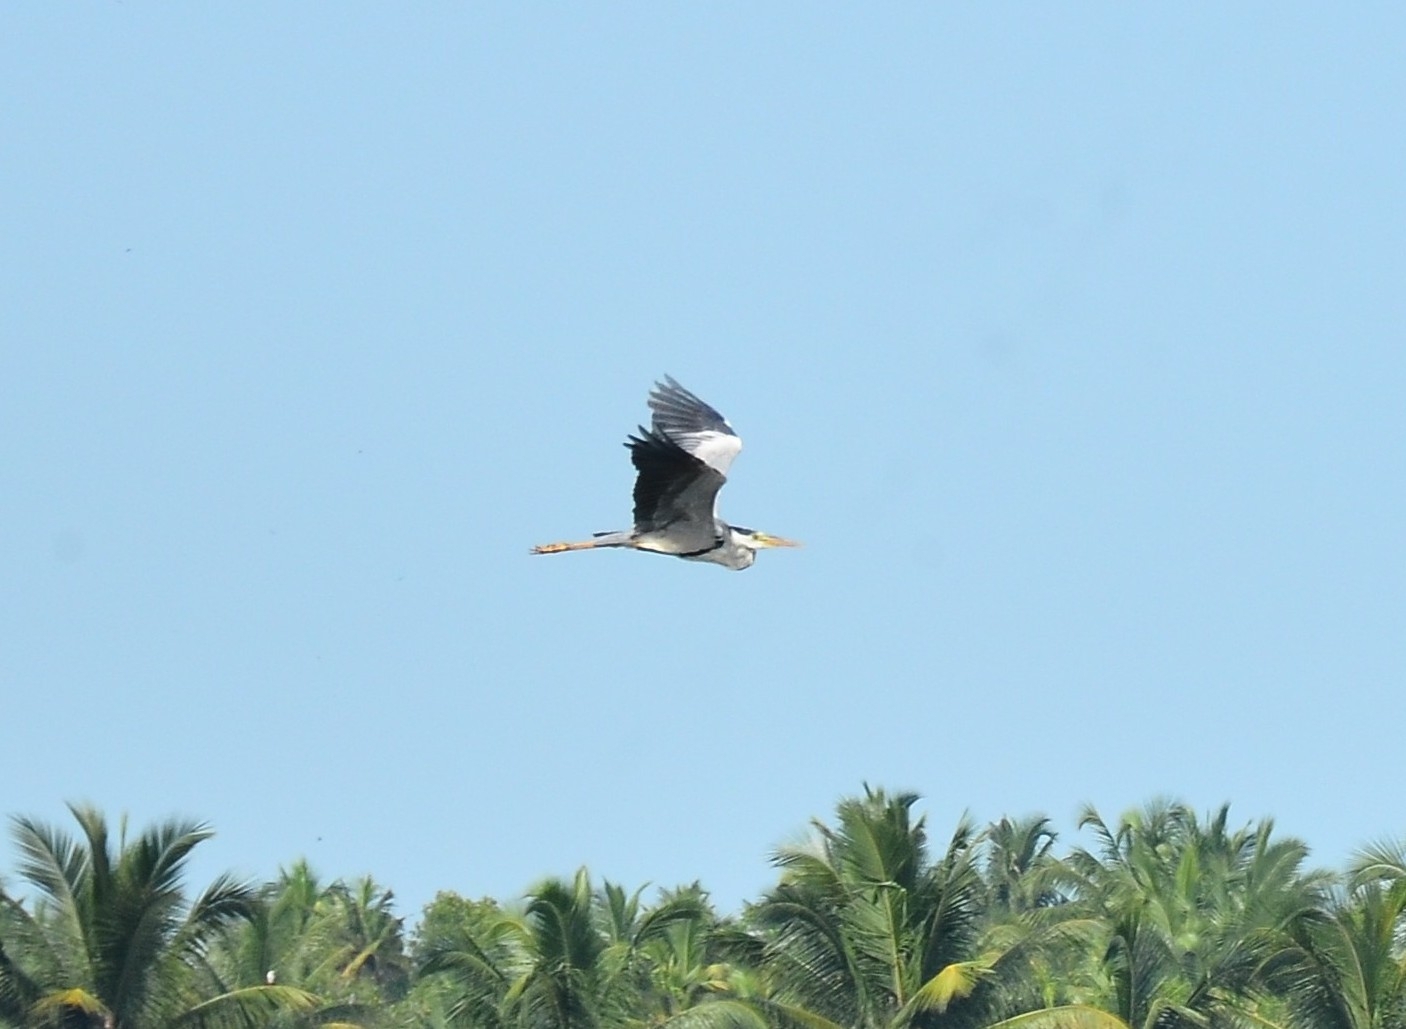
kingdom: Animalia
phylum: Chordata
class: Aves
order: Pelecaniformes
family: Ardeidae
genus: Ardea
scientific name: Ardea cinerea
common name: Grey heron
